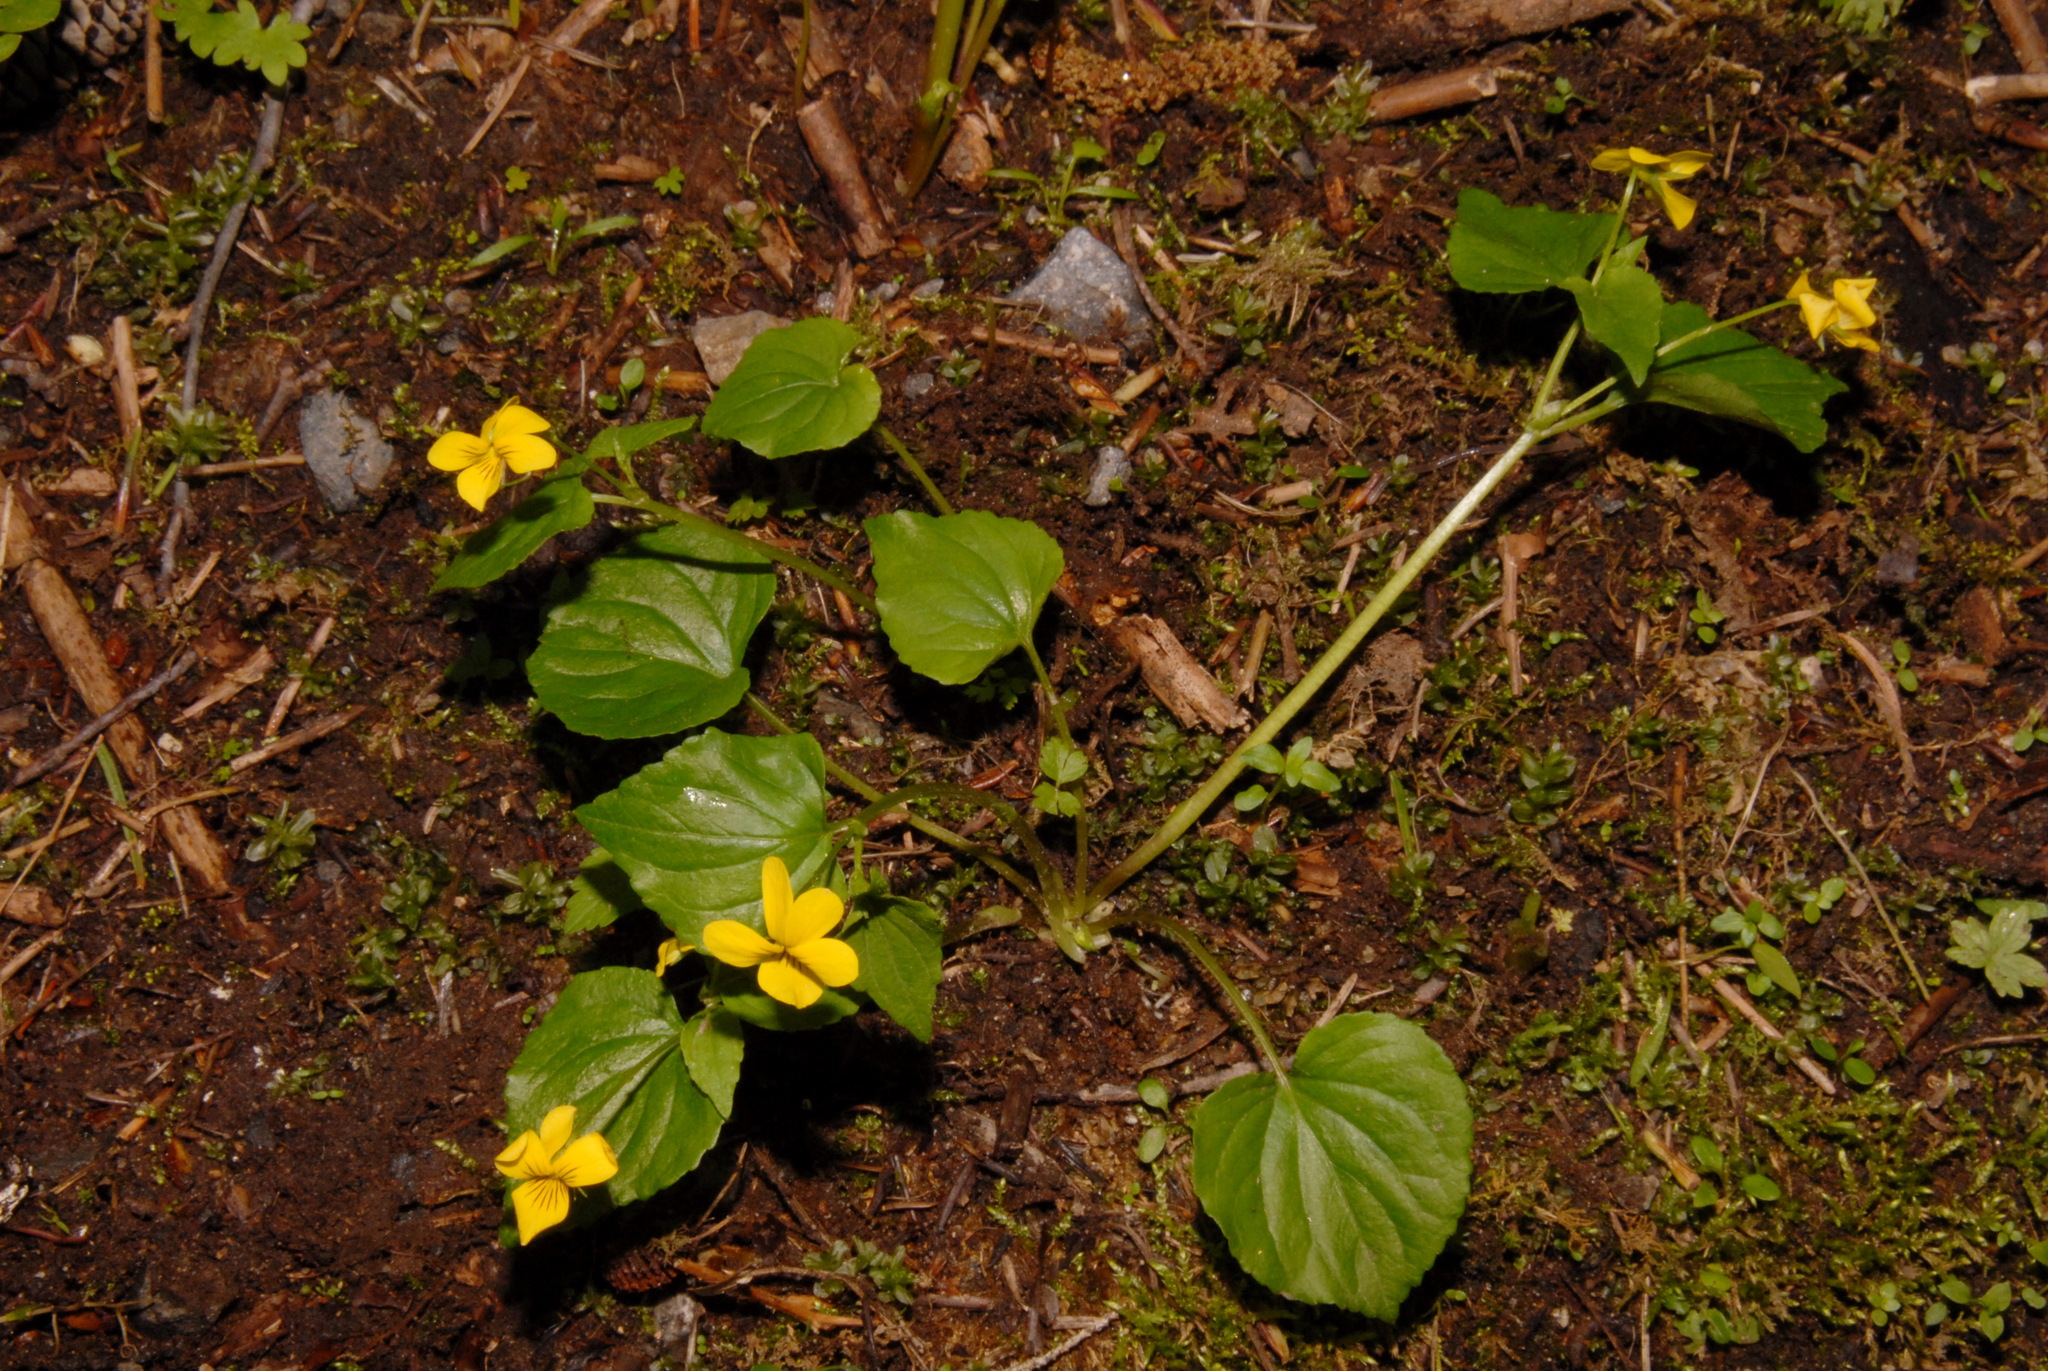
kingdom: Plantae
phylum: Tracheophyta
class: Magnoliopsida
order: Malpighiales
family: Violaceae
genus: Viola
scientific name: Viola glabella
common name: Stream violet
